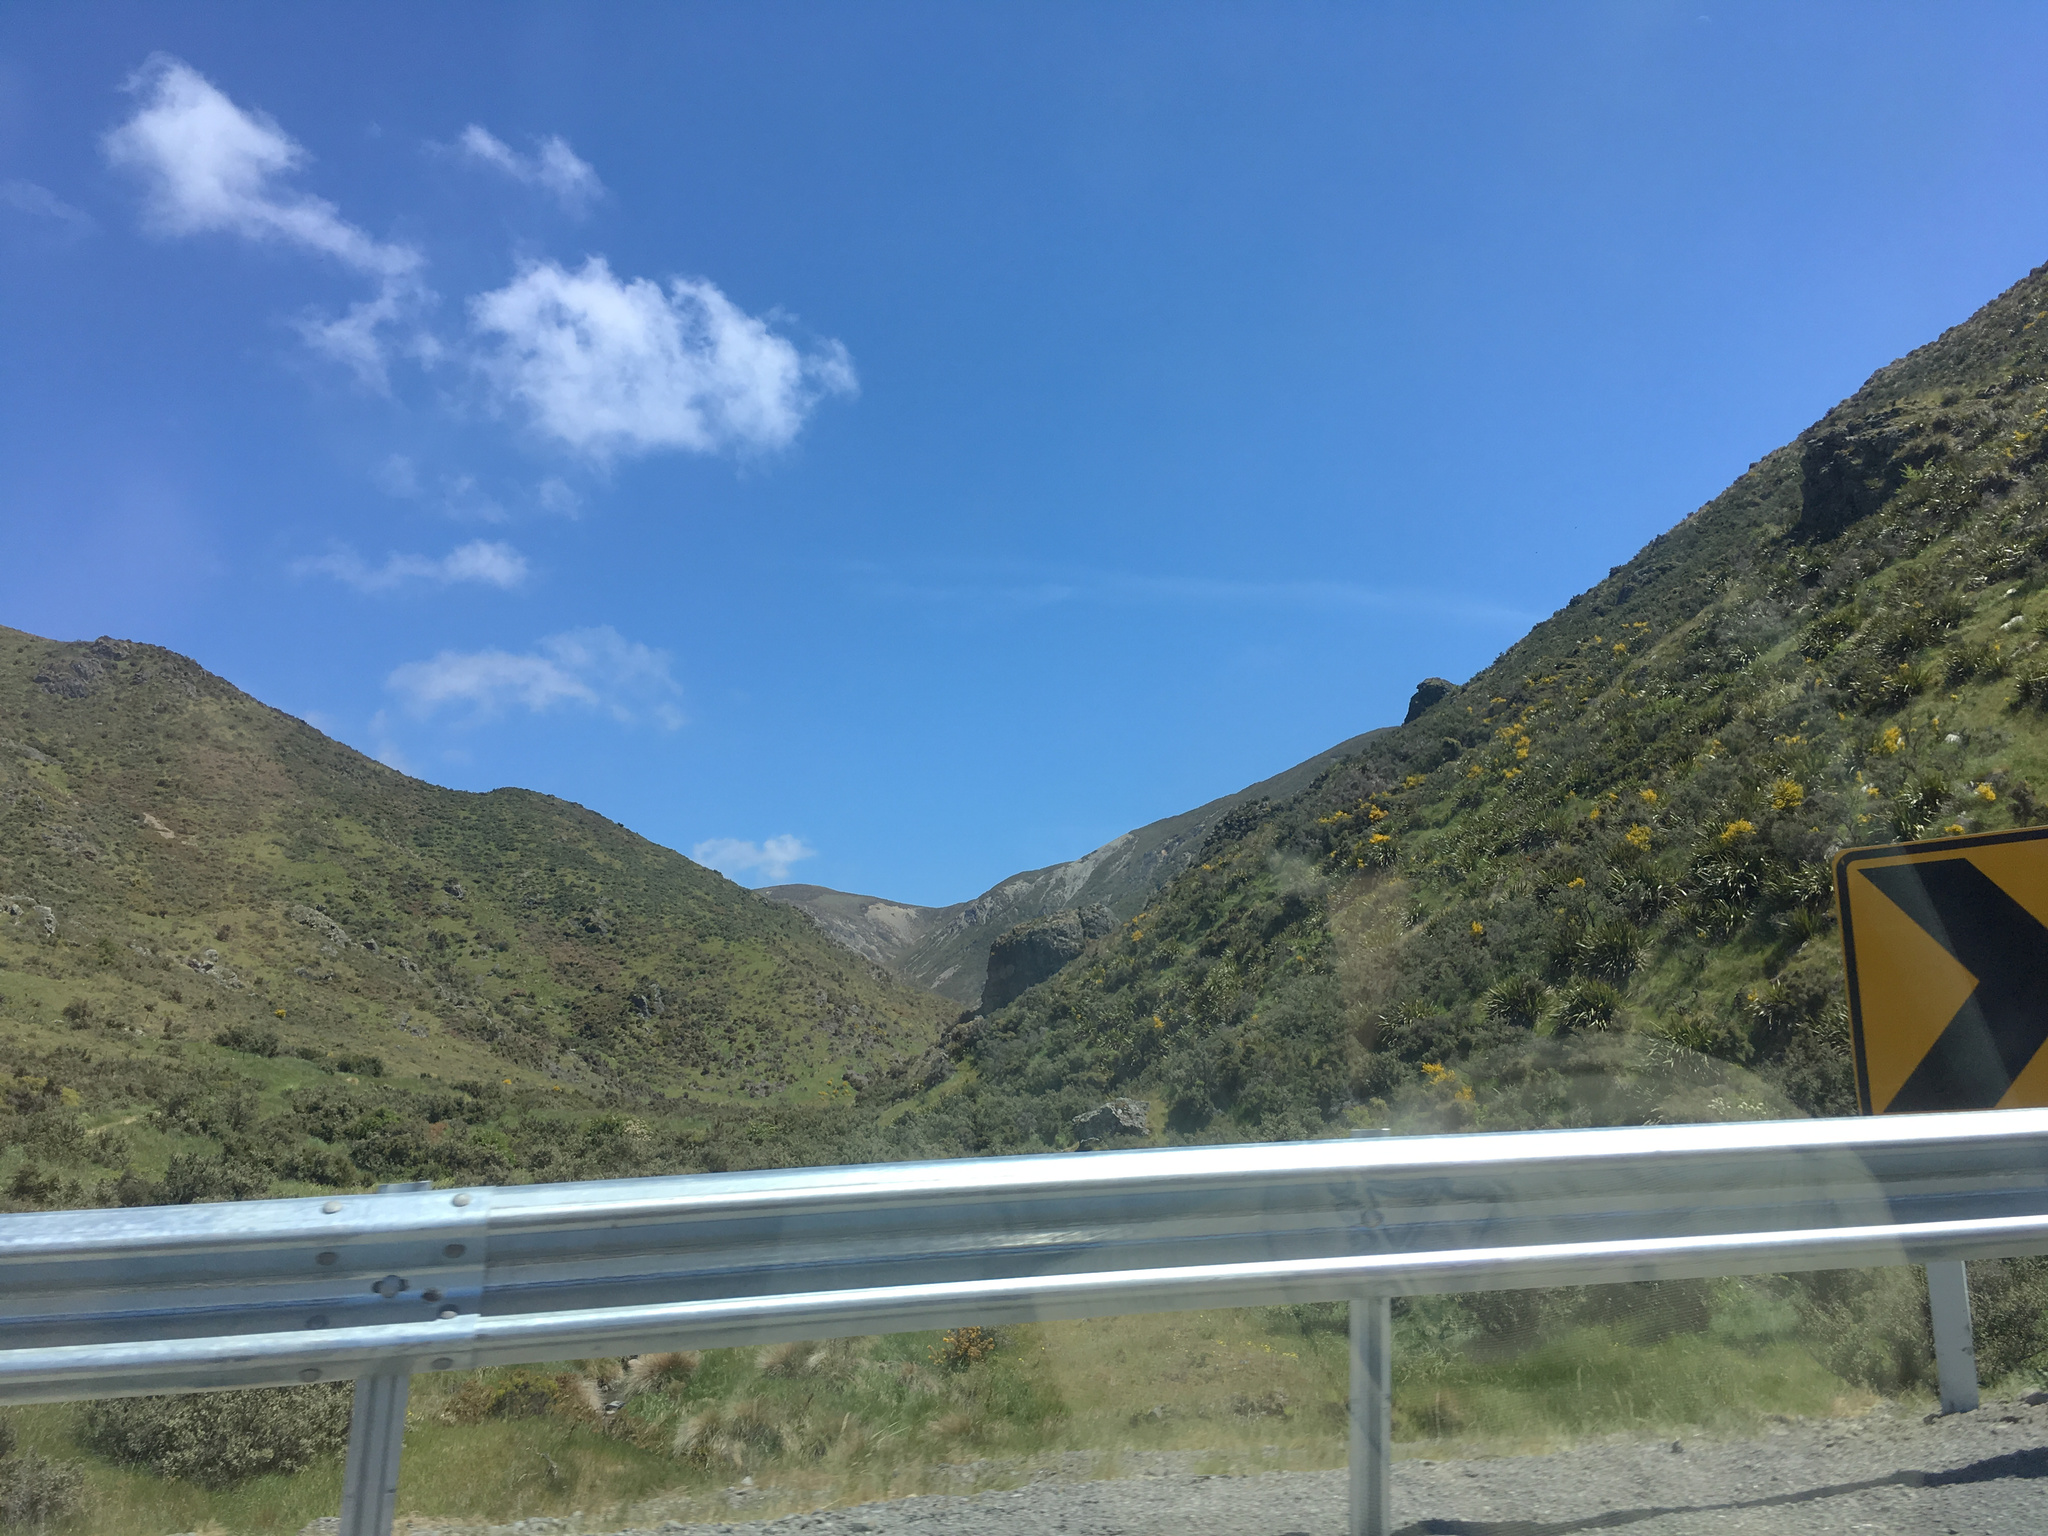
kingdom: Plantae
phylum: Tracheophyta
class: Magnoliopsida
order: Fabales
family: Fabaceae
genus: Cytisus
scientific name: Cytisus scoparius
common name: Scotch broom
